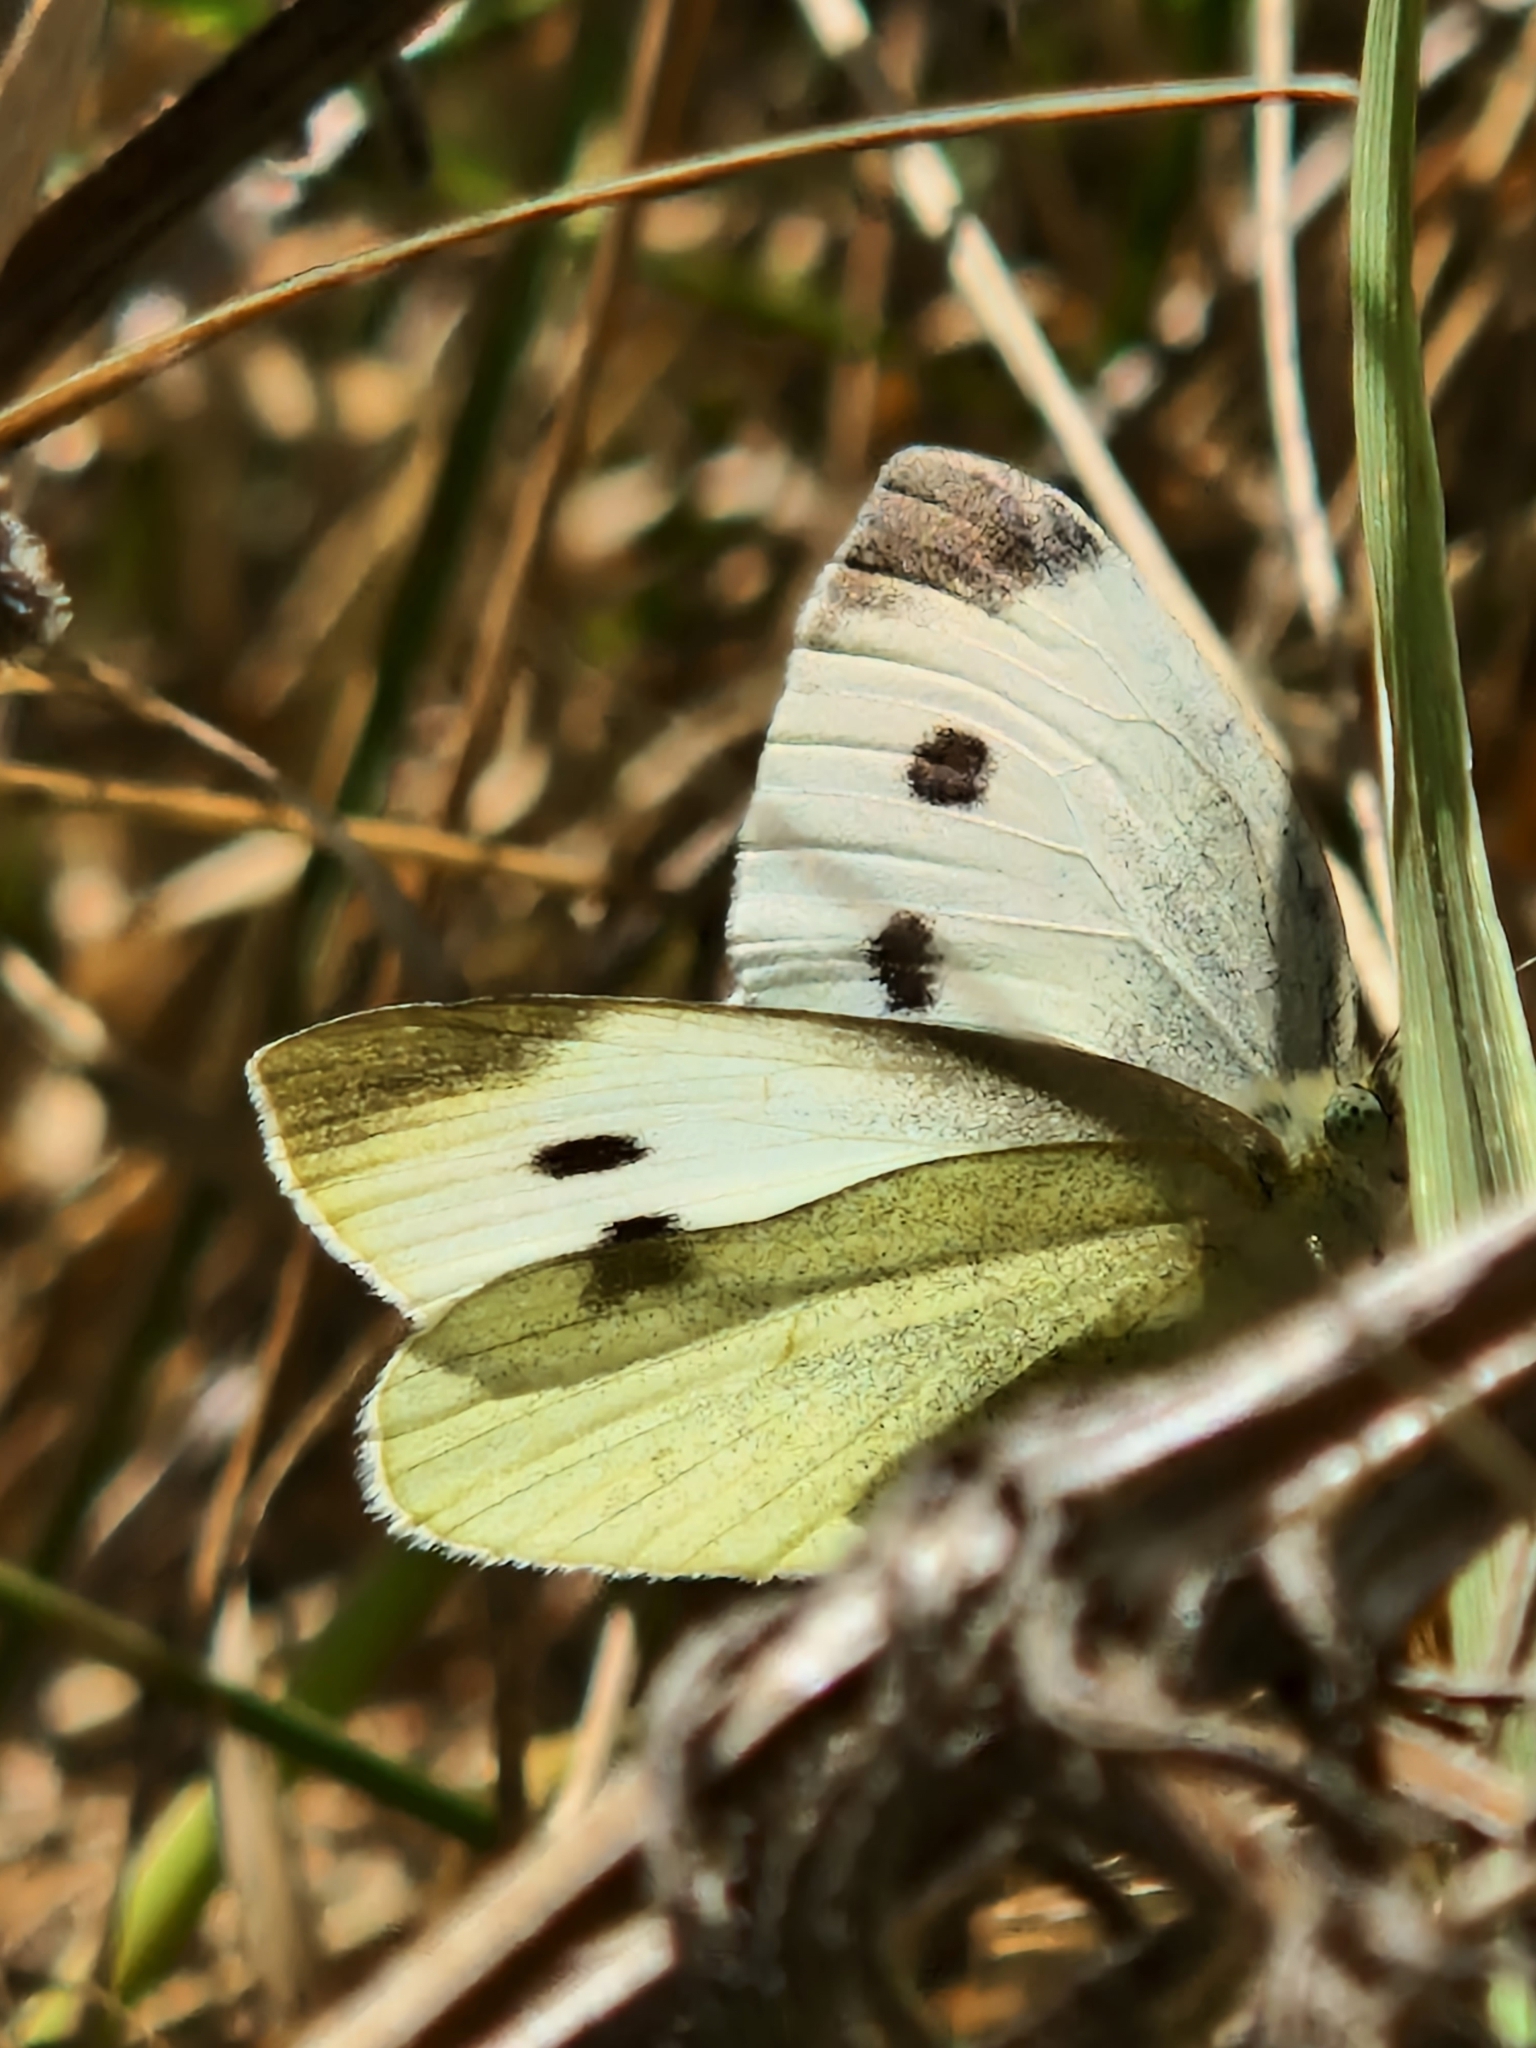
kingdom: Animalia
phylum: Arthropoda
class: Insecta
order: Lepidoptera
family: Pieridae
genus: Pieris
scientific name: Pieris rapae
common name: Small white
